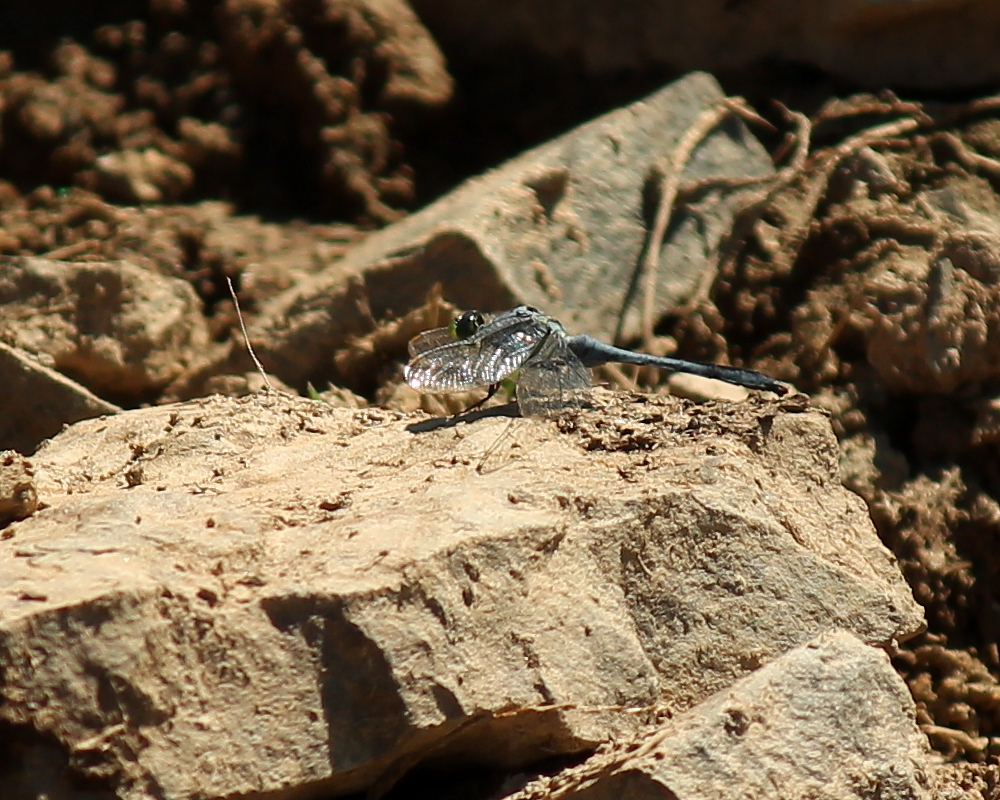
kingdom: Animalia
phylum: Arthropoda
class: Insecta
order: Odonata
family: Libellulidae
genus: Erythemis
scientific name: Erythemis simplicicollis
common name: Eastern pondhawk
